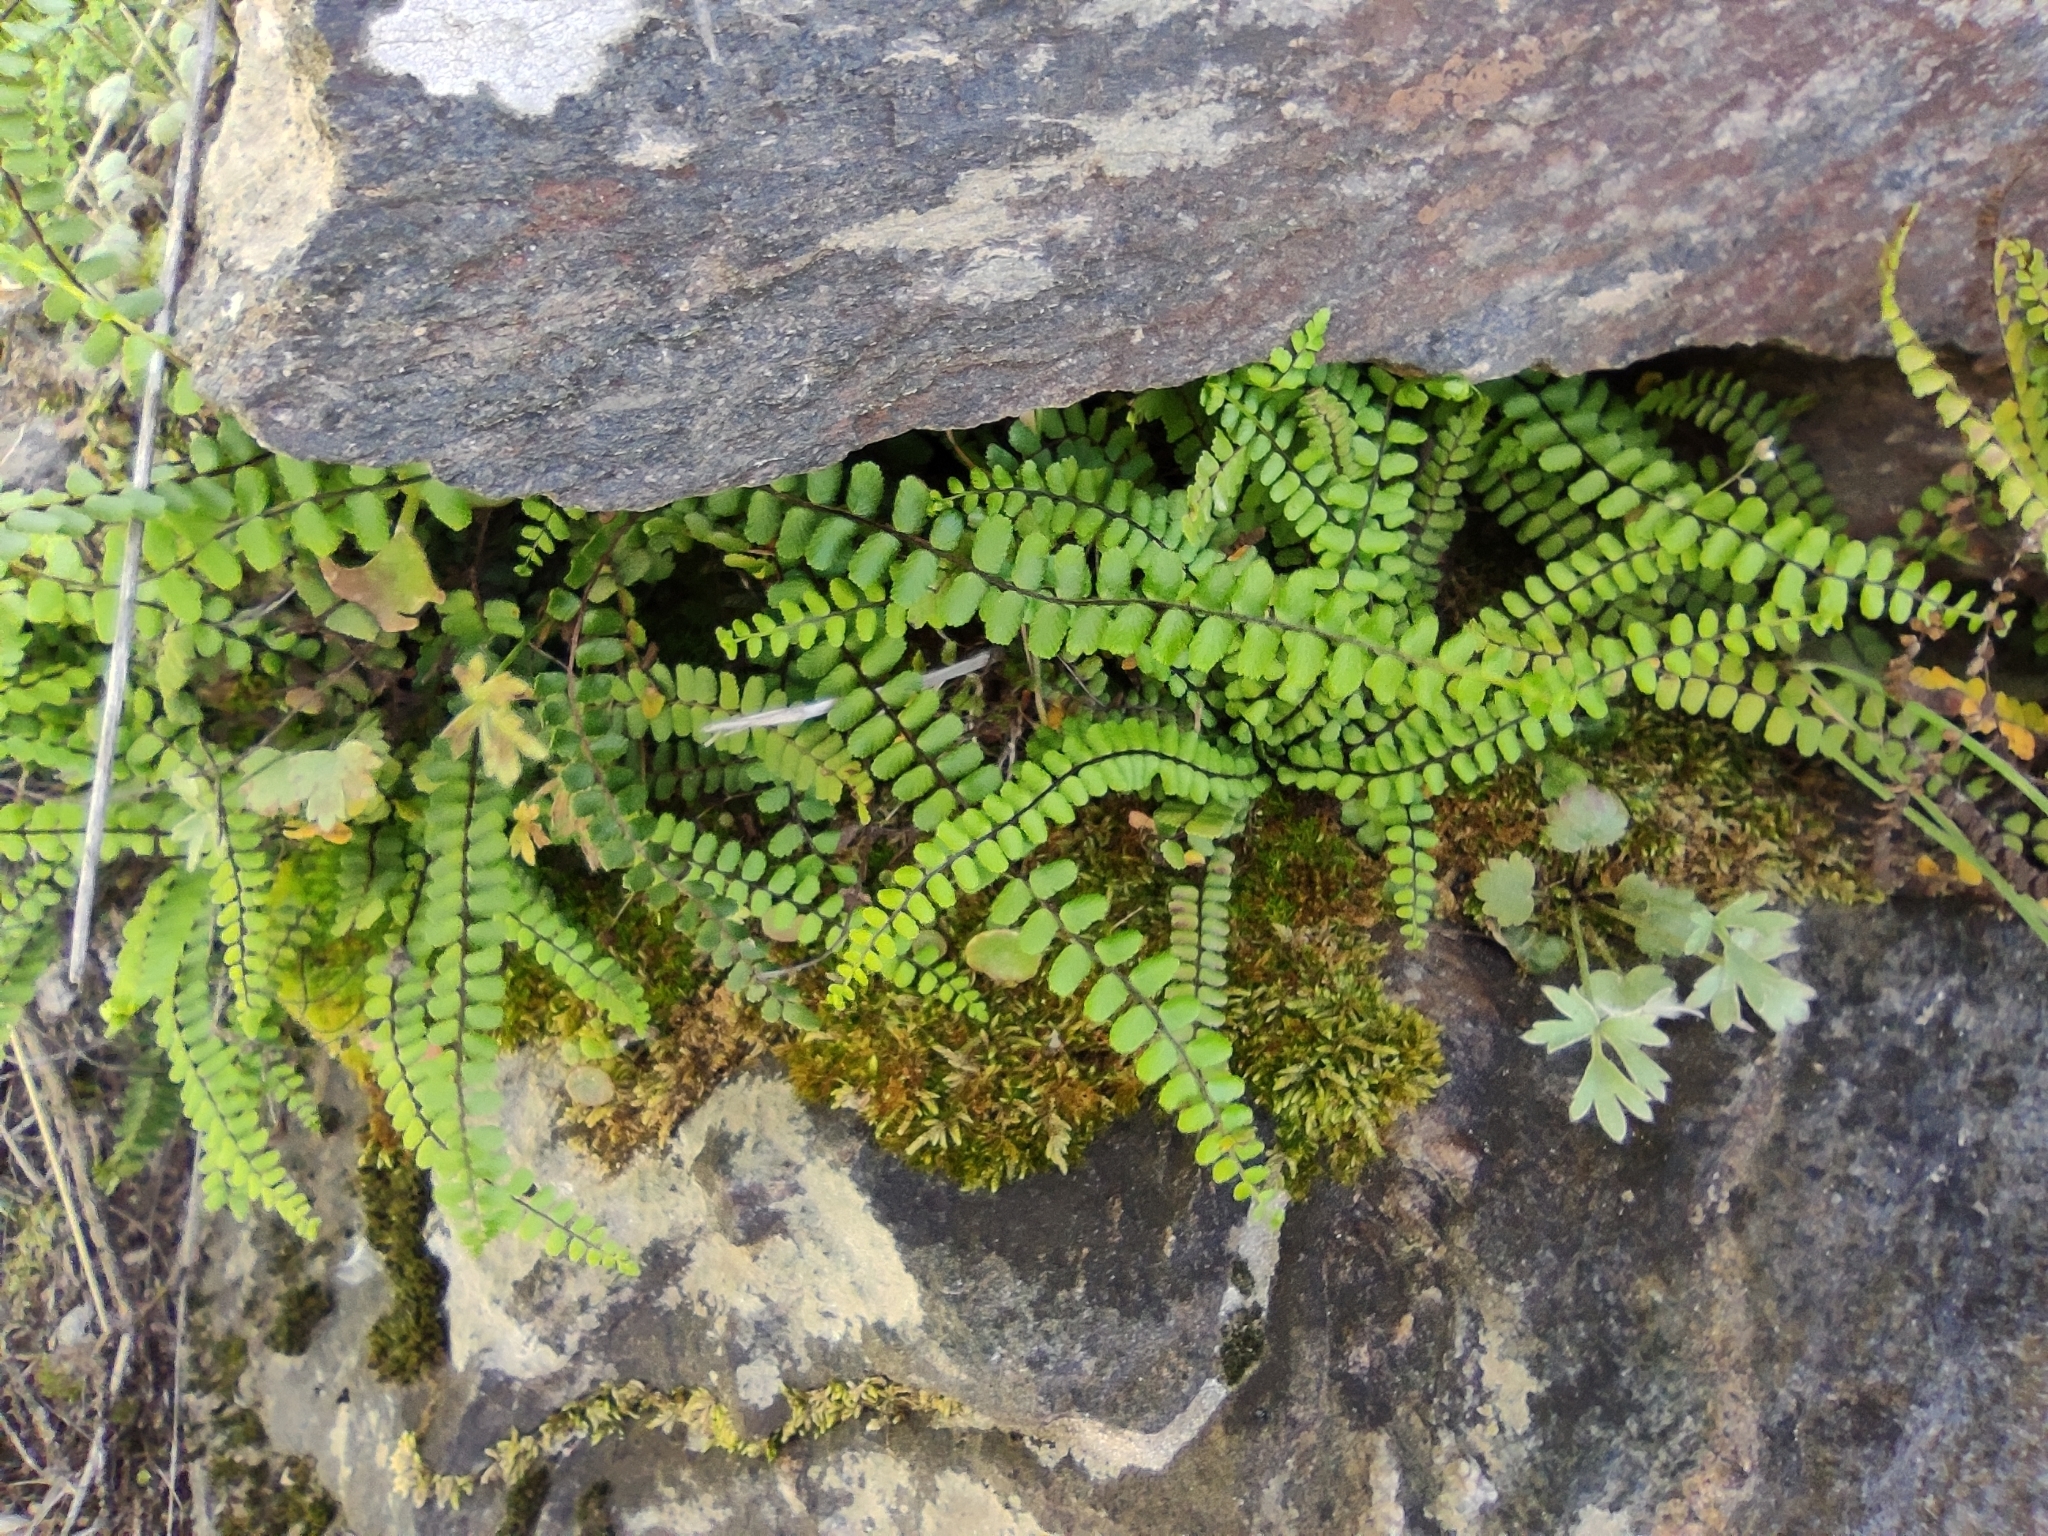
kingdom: Plantae
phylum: Tracheophyta
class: Polypodiopsida
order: Polypodiales
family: Aspleniaceae
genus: Asplenium
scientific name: Asplenium trichomanes
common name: Maidenhair spleenwort
